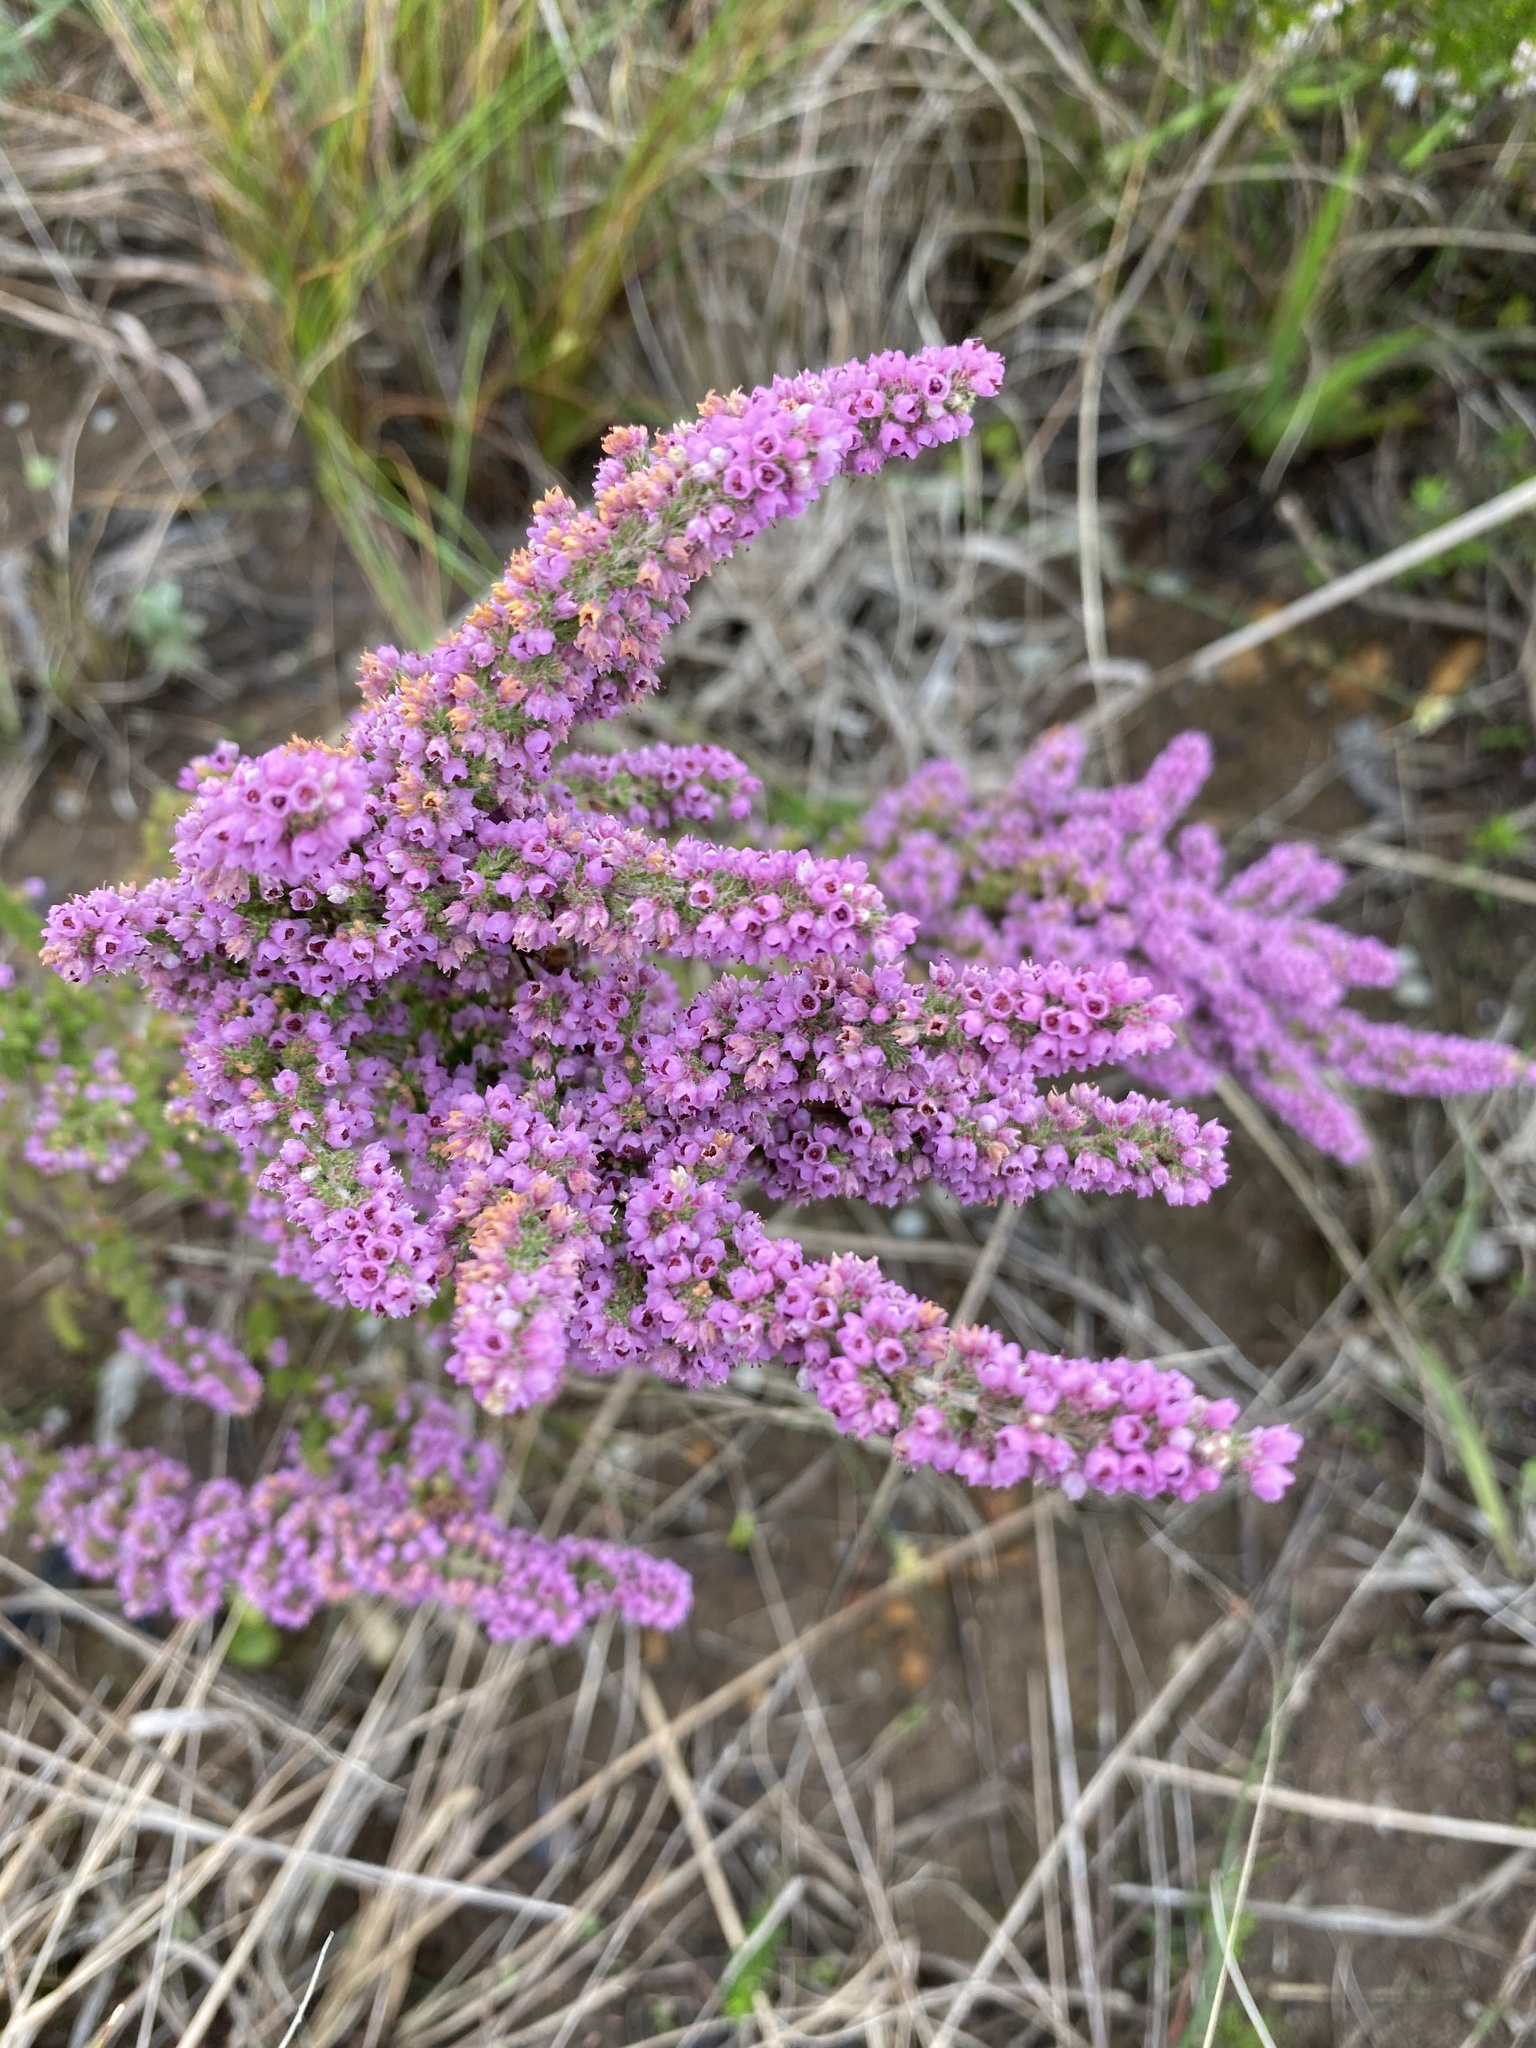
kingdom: Plantae
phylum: Tracheophyta
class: Magnoliopsida
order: Ericales
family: Ericaceae
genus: Erica
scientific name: Erica onusta
